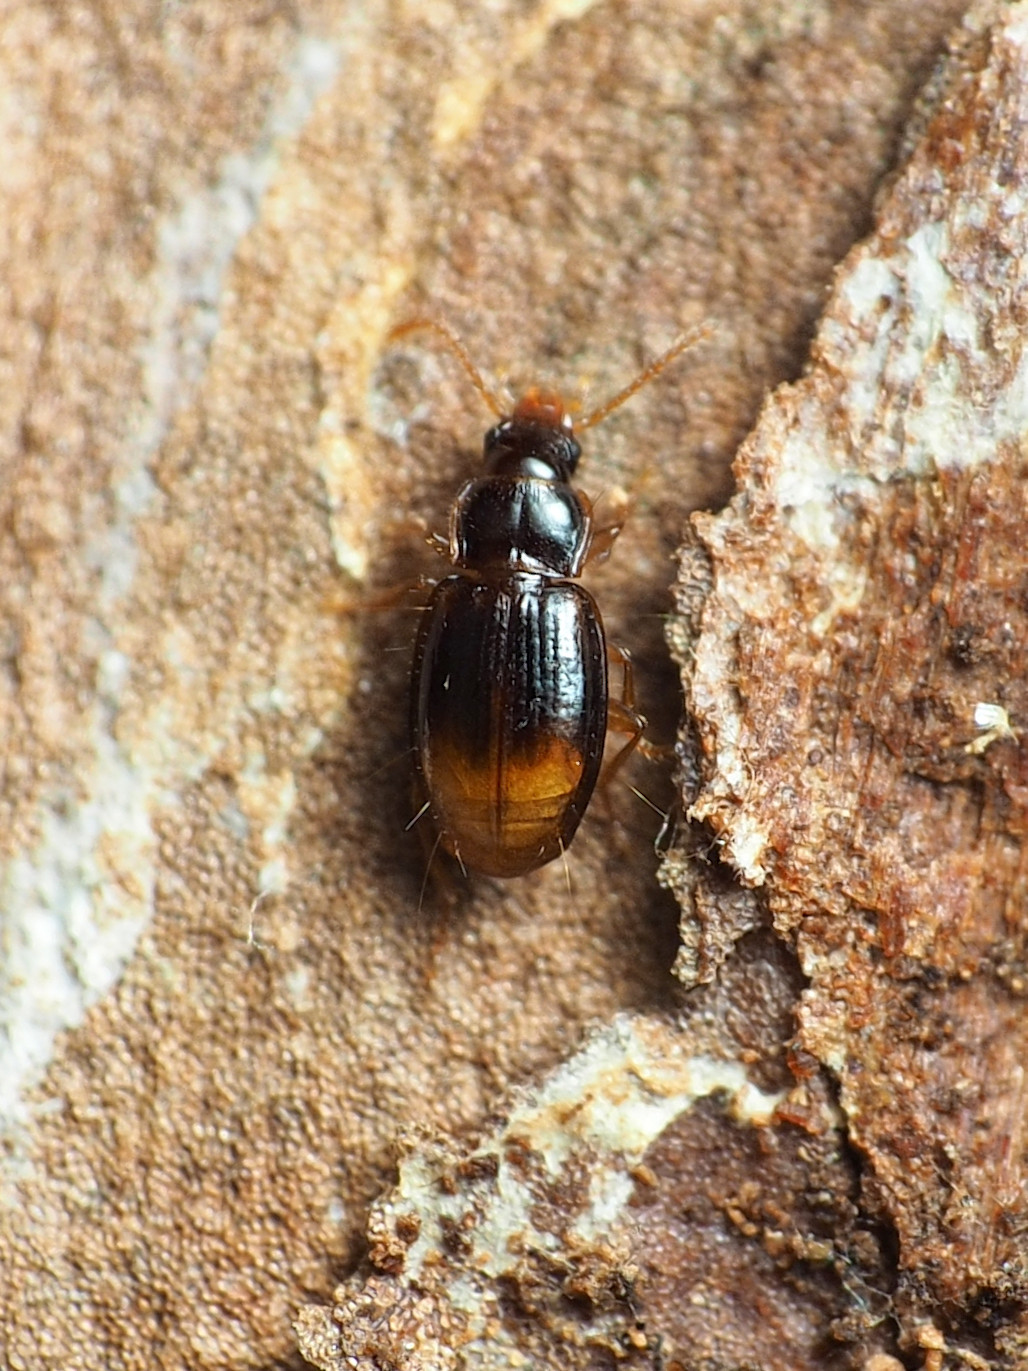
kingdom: Animalia
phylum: Arthropoda
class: Insecta
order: Coleoptera
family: Carabidae
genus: Mioptachys
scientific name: Mioptachys flavicauda
